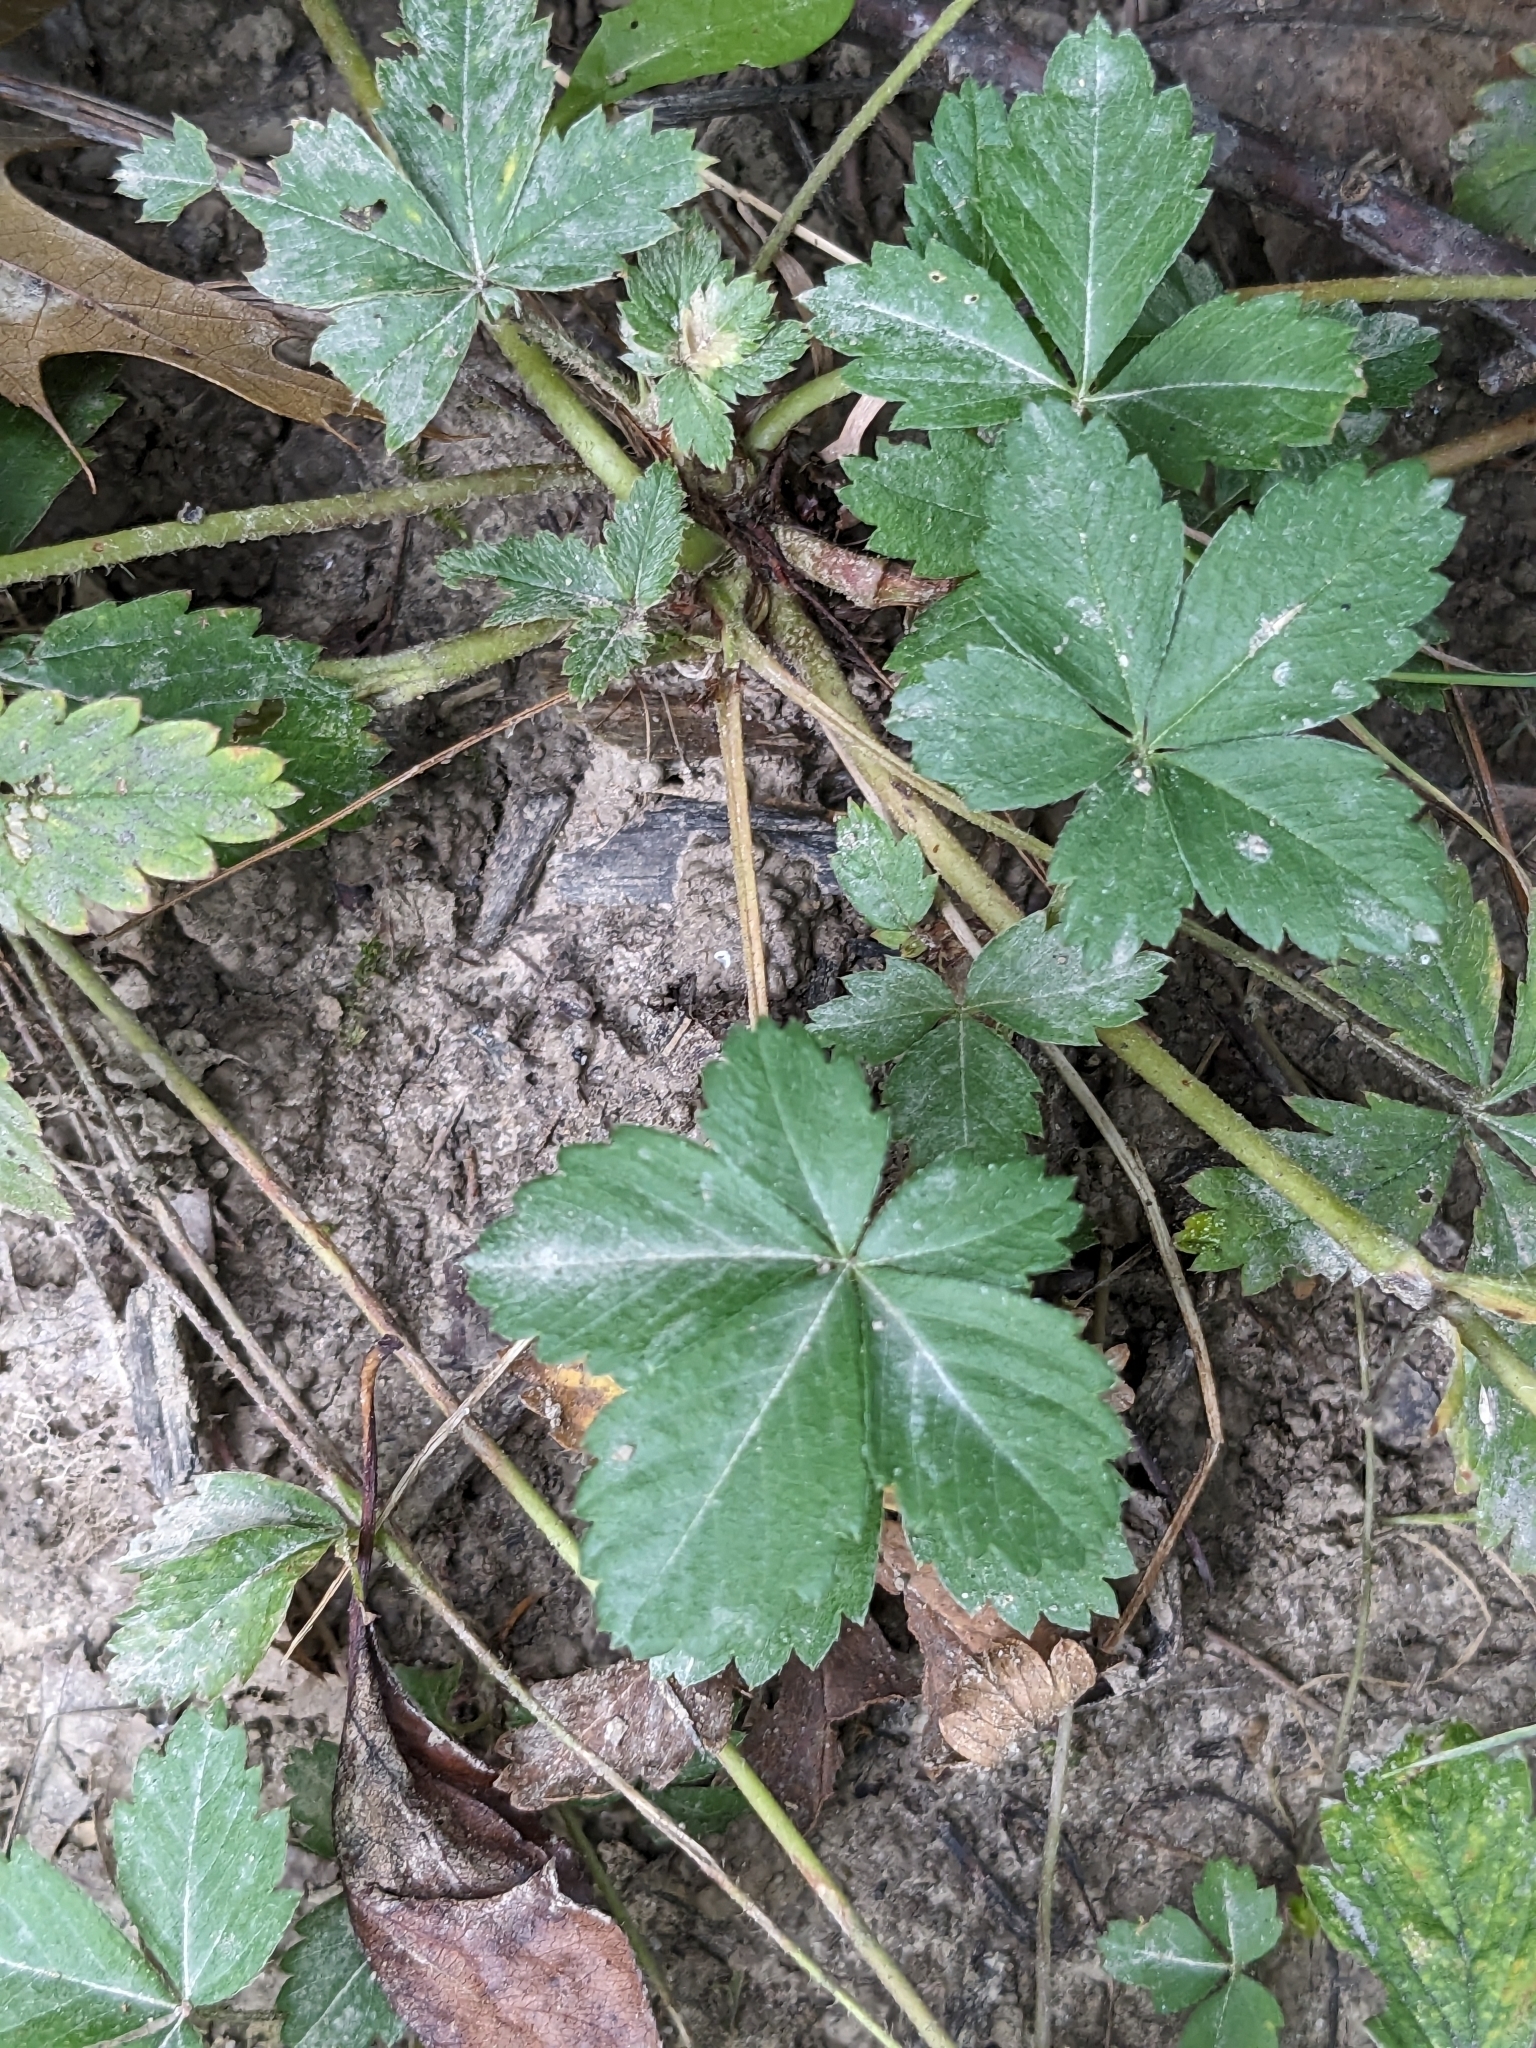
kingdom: Plantae
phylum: Tracheophyta
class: Magnoliopsida
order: Rosales
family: Rosaceae
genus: Potentilla
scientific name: Potentilla simplex
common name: Old field cinquefoil
